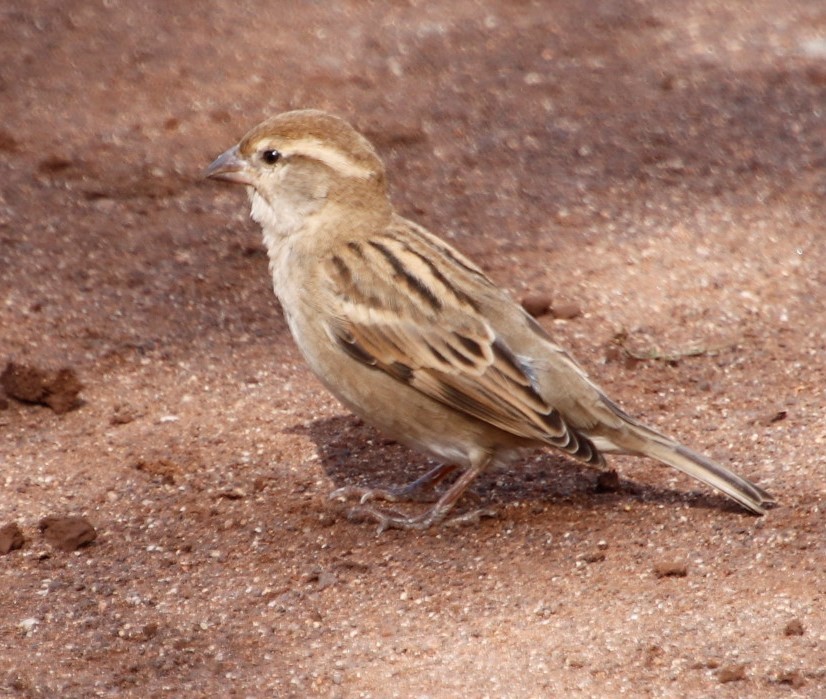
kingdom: Animalia
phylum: Chordata
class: Aves
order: Passeriformes
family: Passeridae
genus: Passer
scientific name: Passer domesticus
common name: House sparrow
